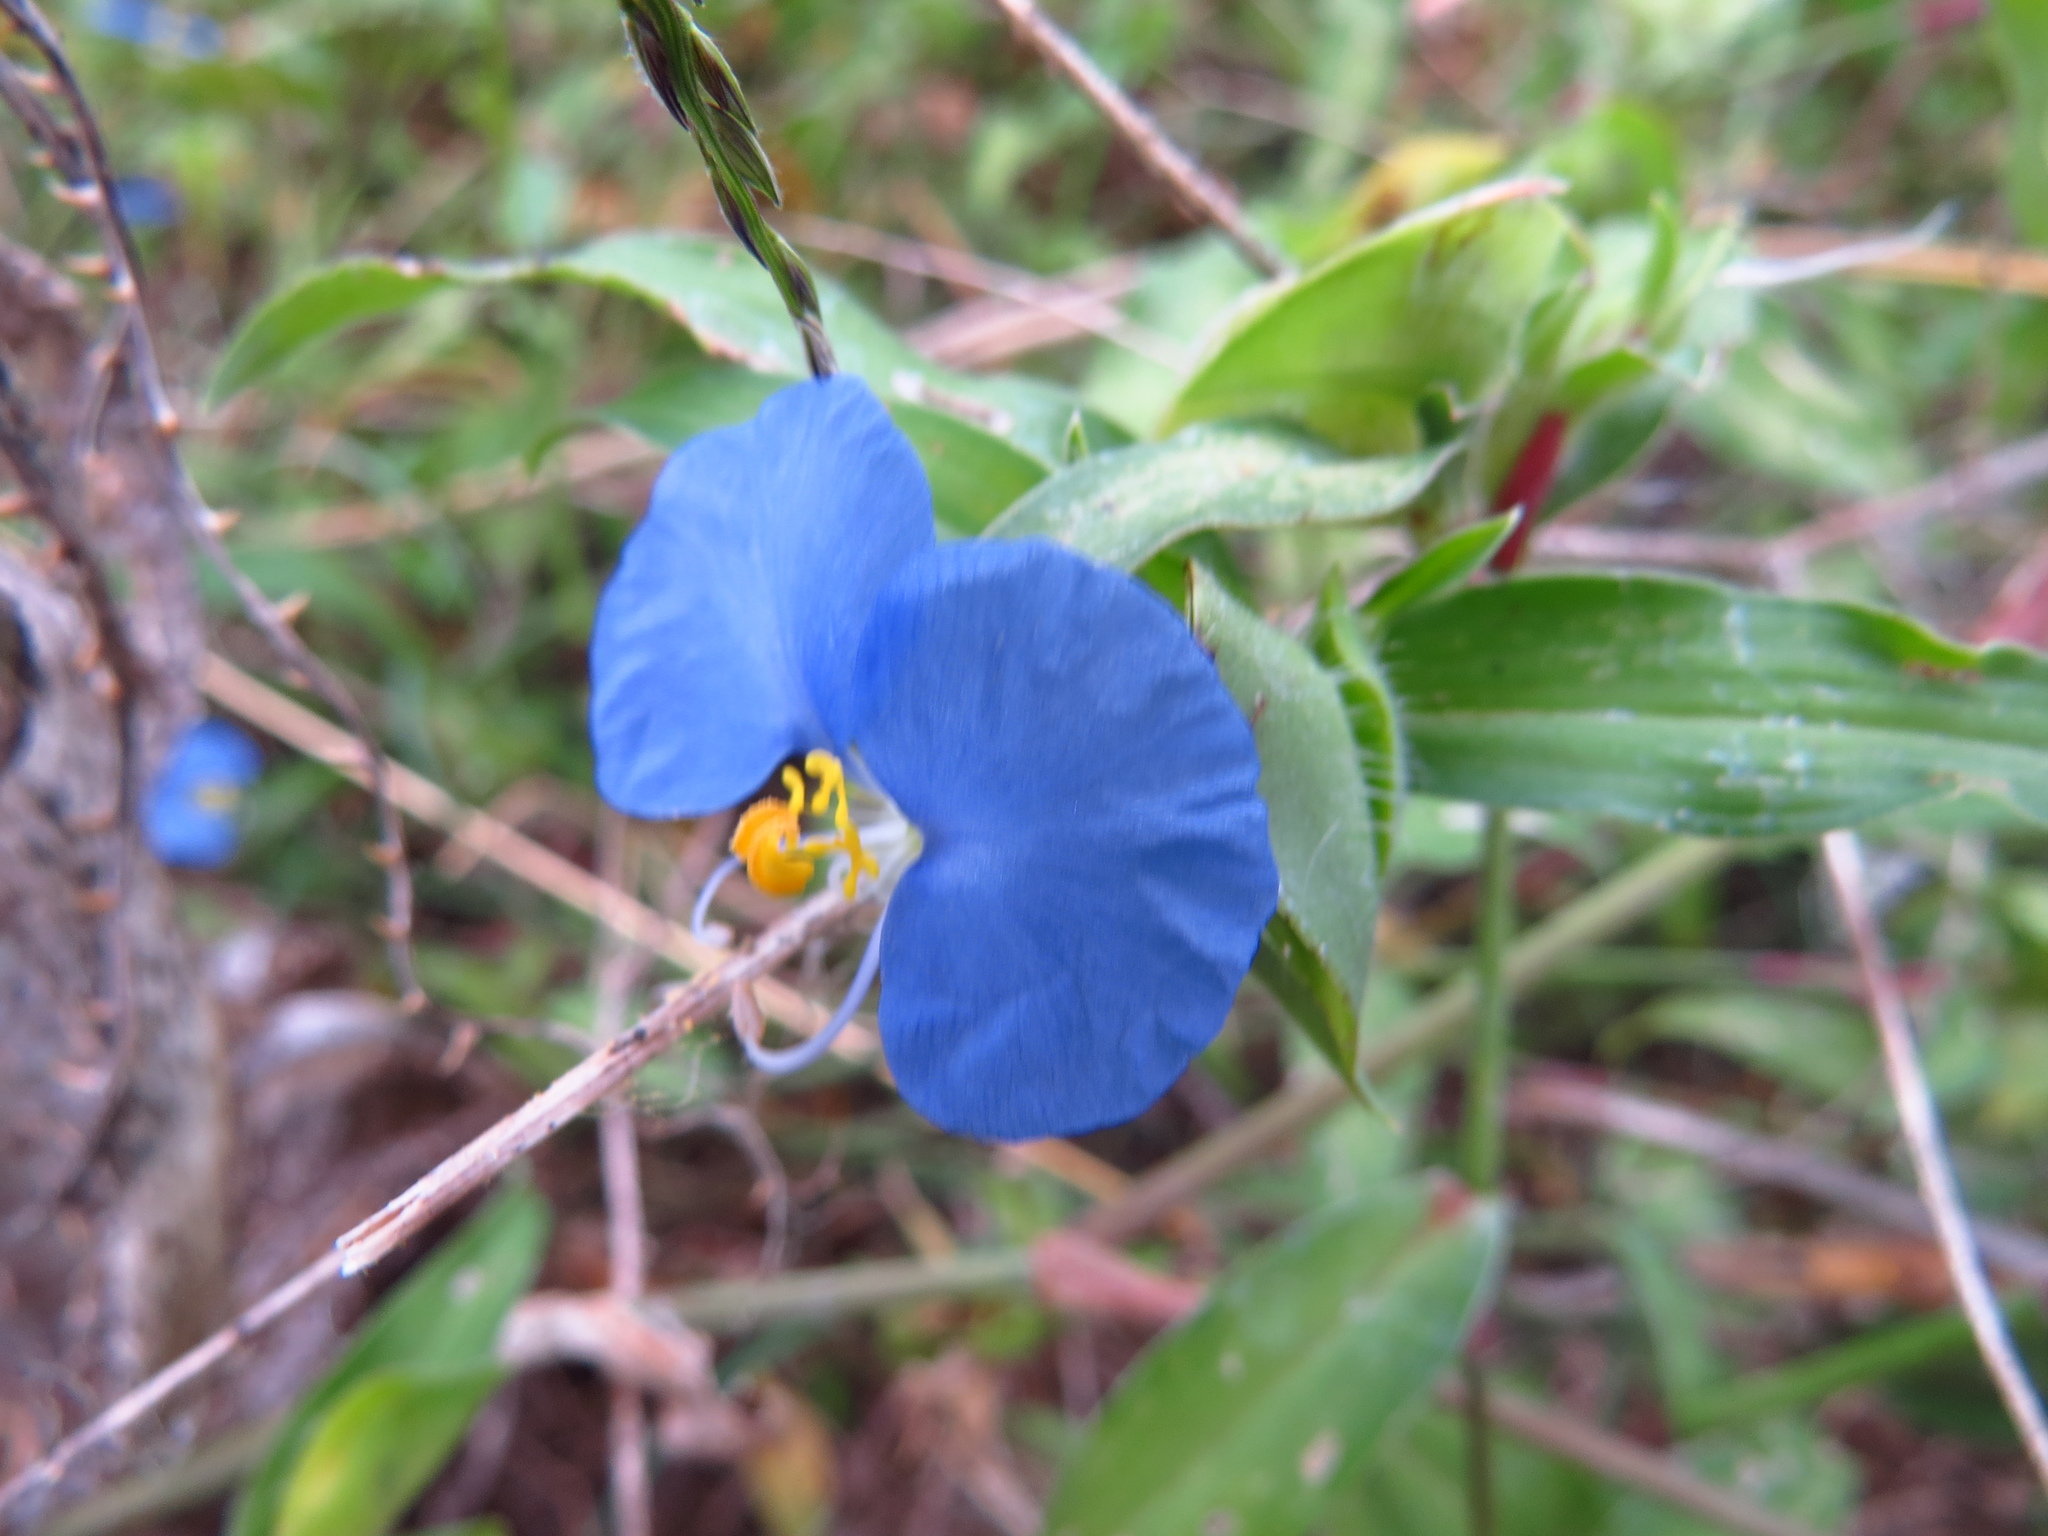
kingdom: Plantae
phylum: Tracheophyta
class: Liliopsida
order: Commelinales
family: Commelinaceae
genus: Commelina
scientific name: Commelina erecta
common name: Blousel blommetjie
